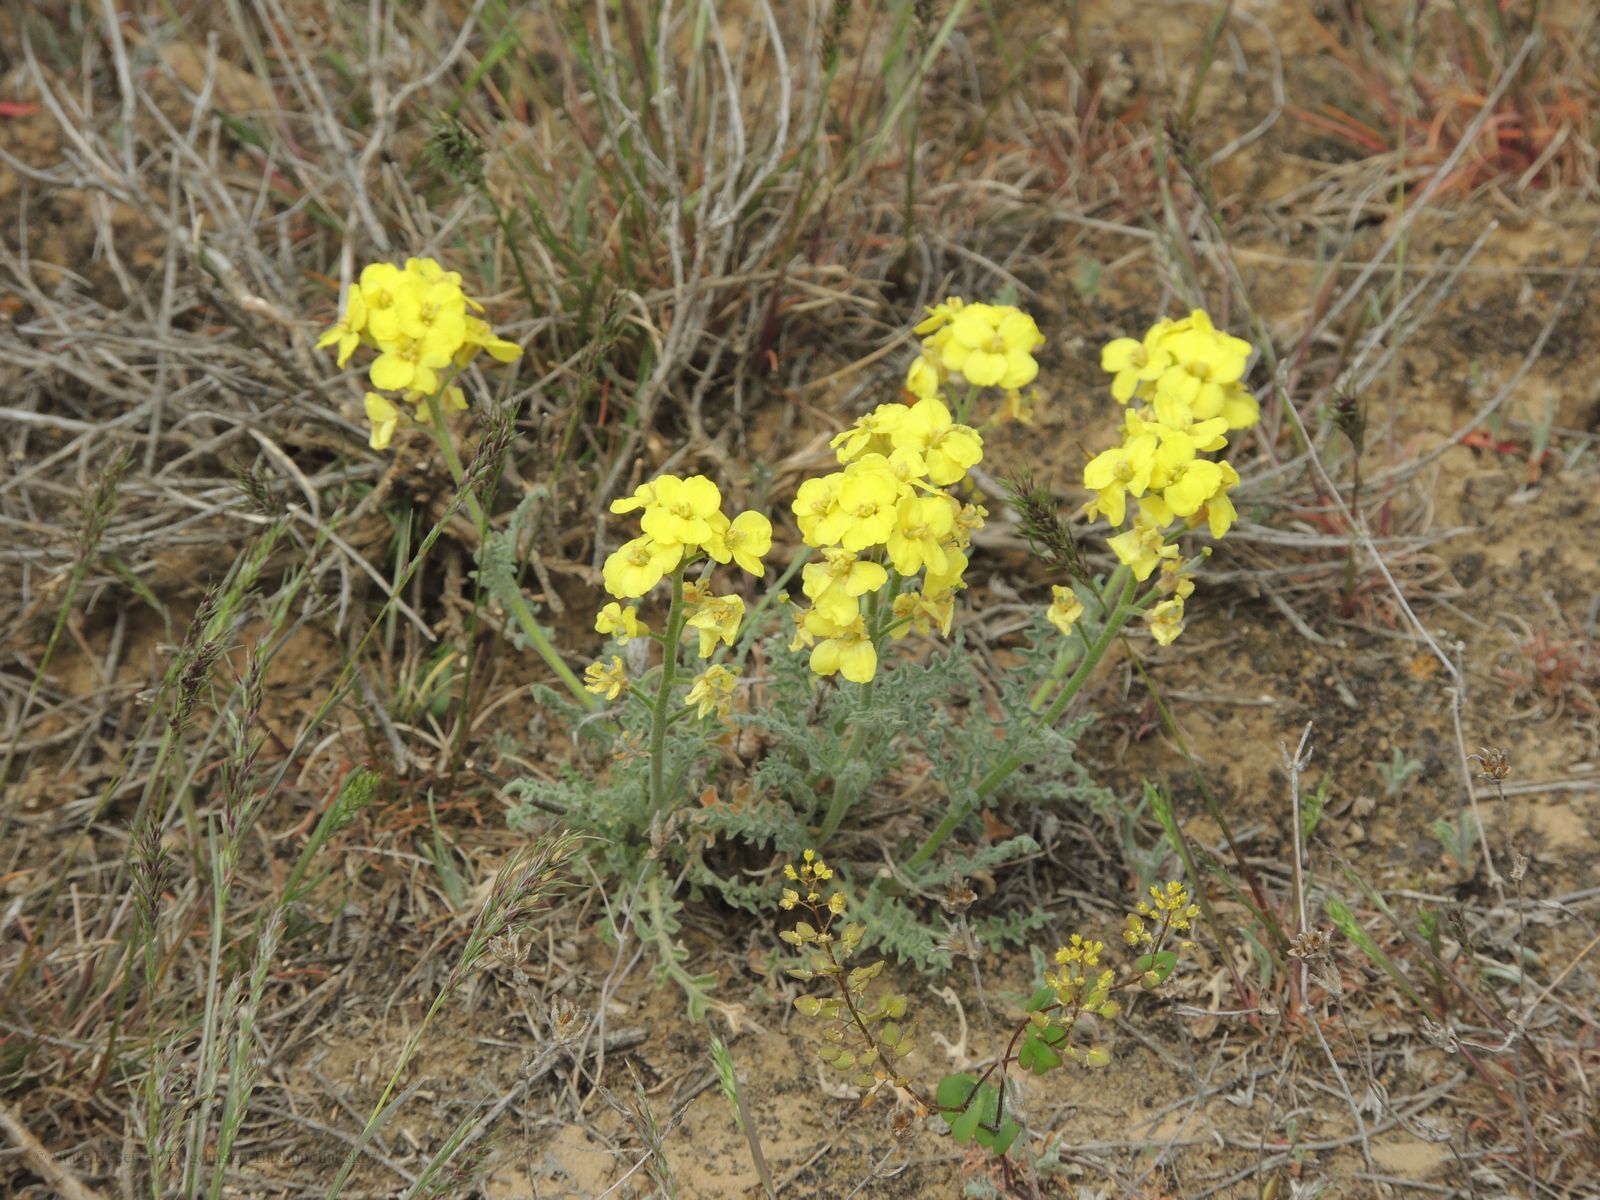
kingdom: Plantae
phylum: Tracheophyta
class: Magnoliopsida
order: Brassicales
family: Brassicaceae
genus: Sterigmostemum
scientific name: Sterigmostemum caspicum
